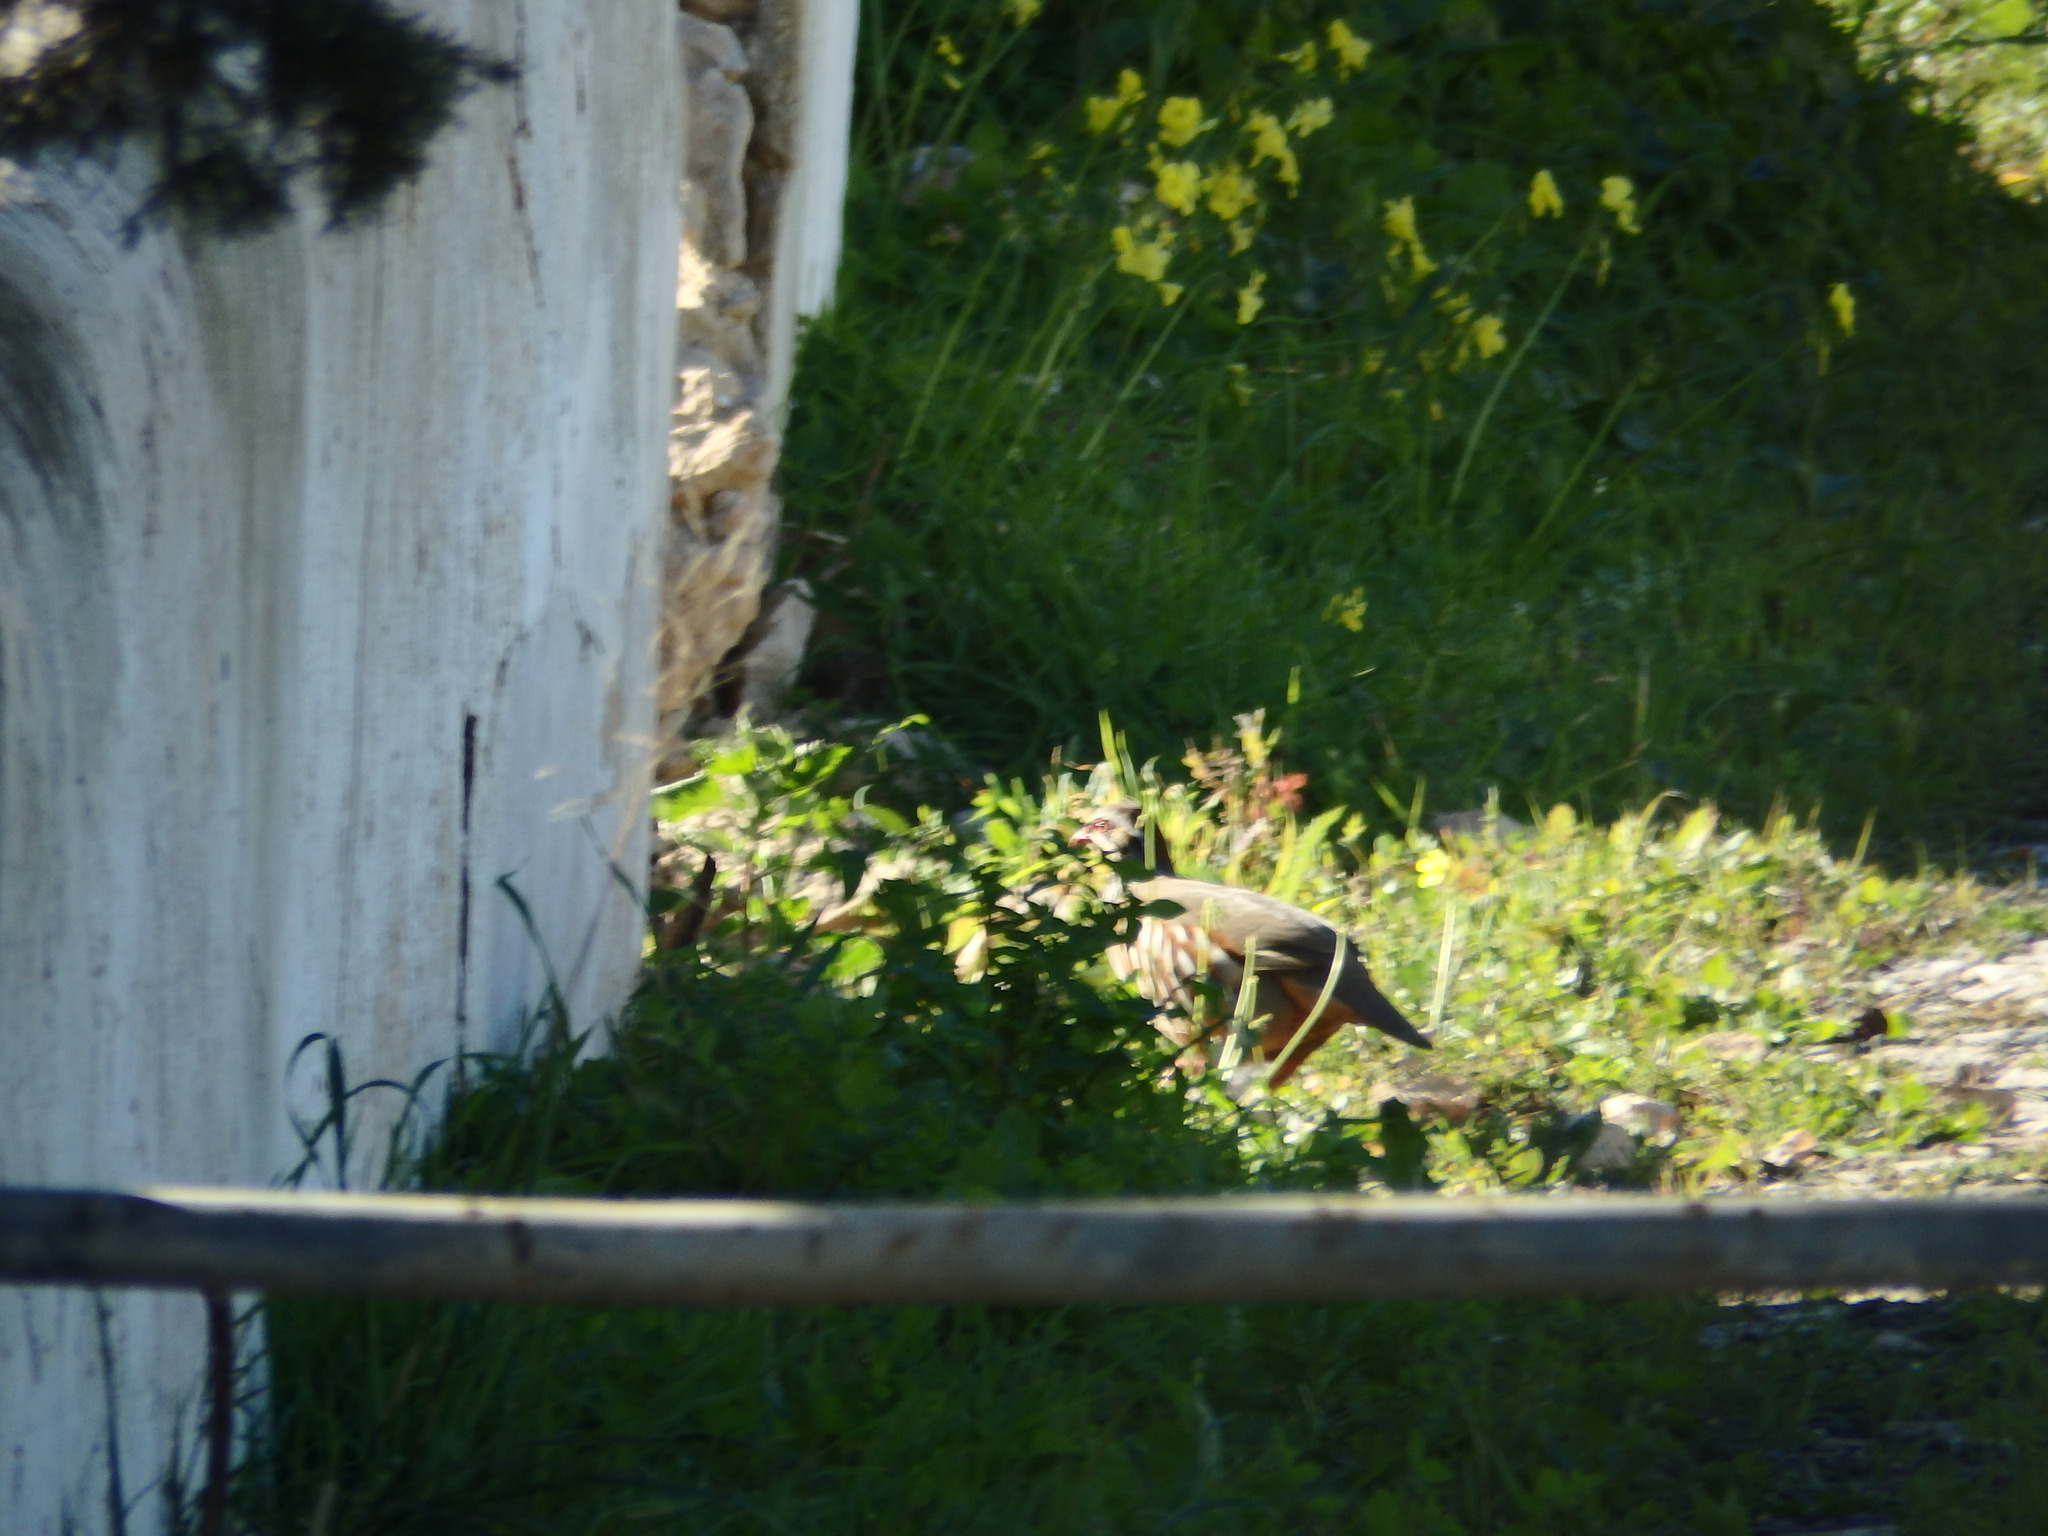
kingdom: Animalia
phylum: Chordata
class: Aves
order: Galliformes
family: Phasianidae
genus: Alectoris
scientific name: Alectoris rufa
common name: Red-legged partridge
